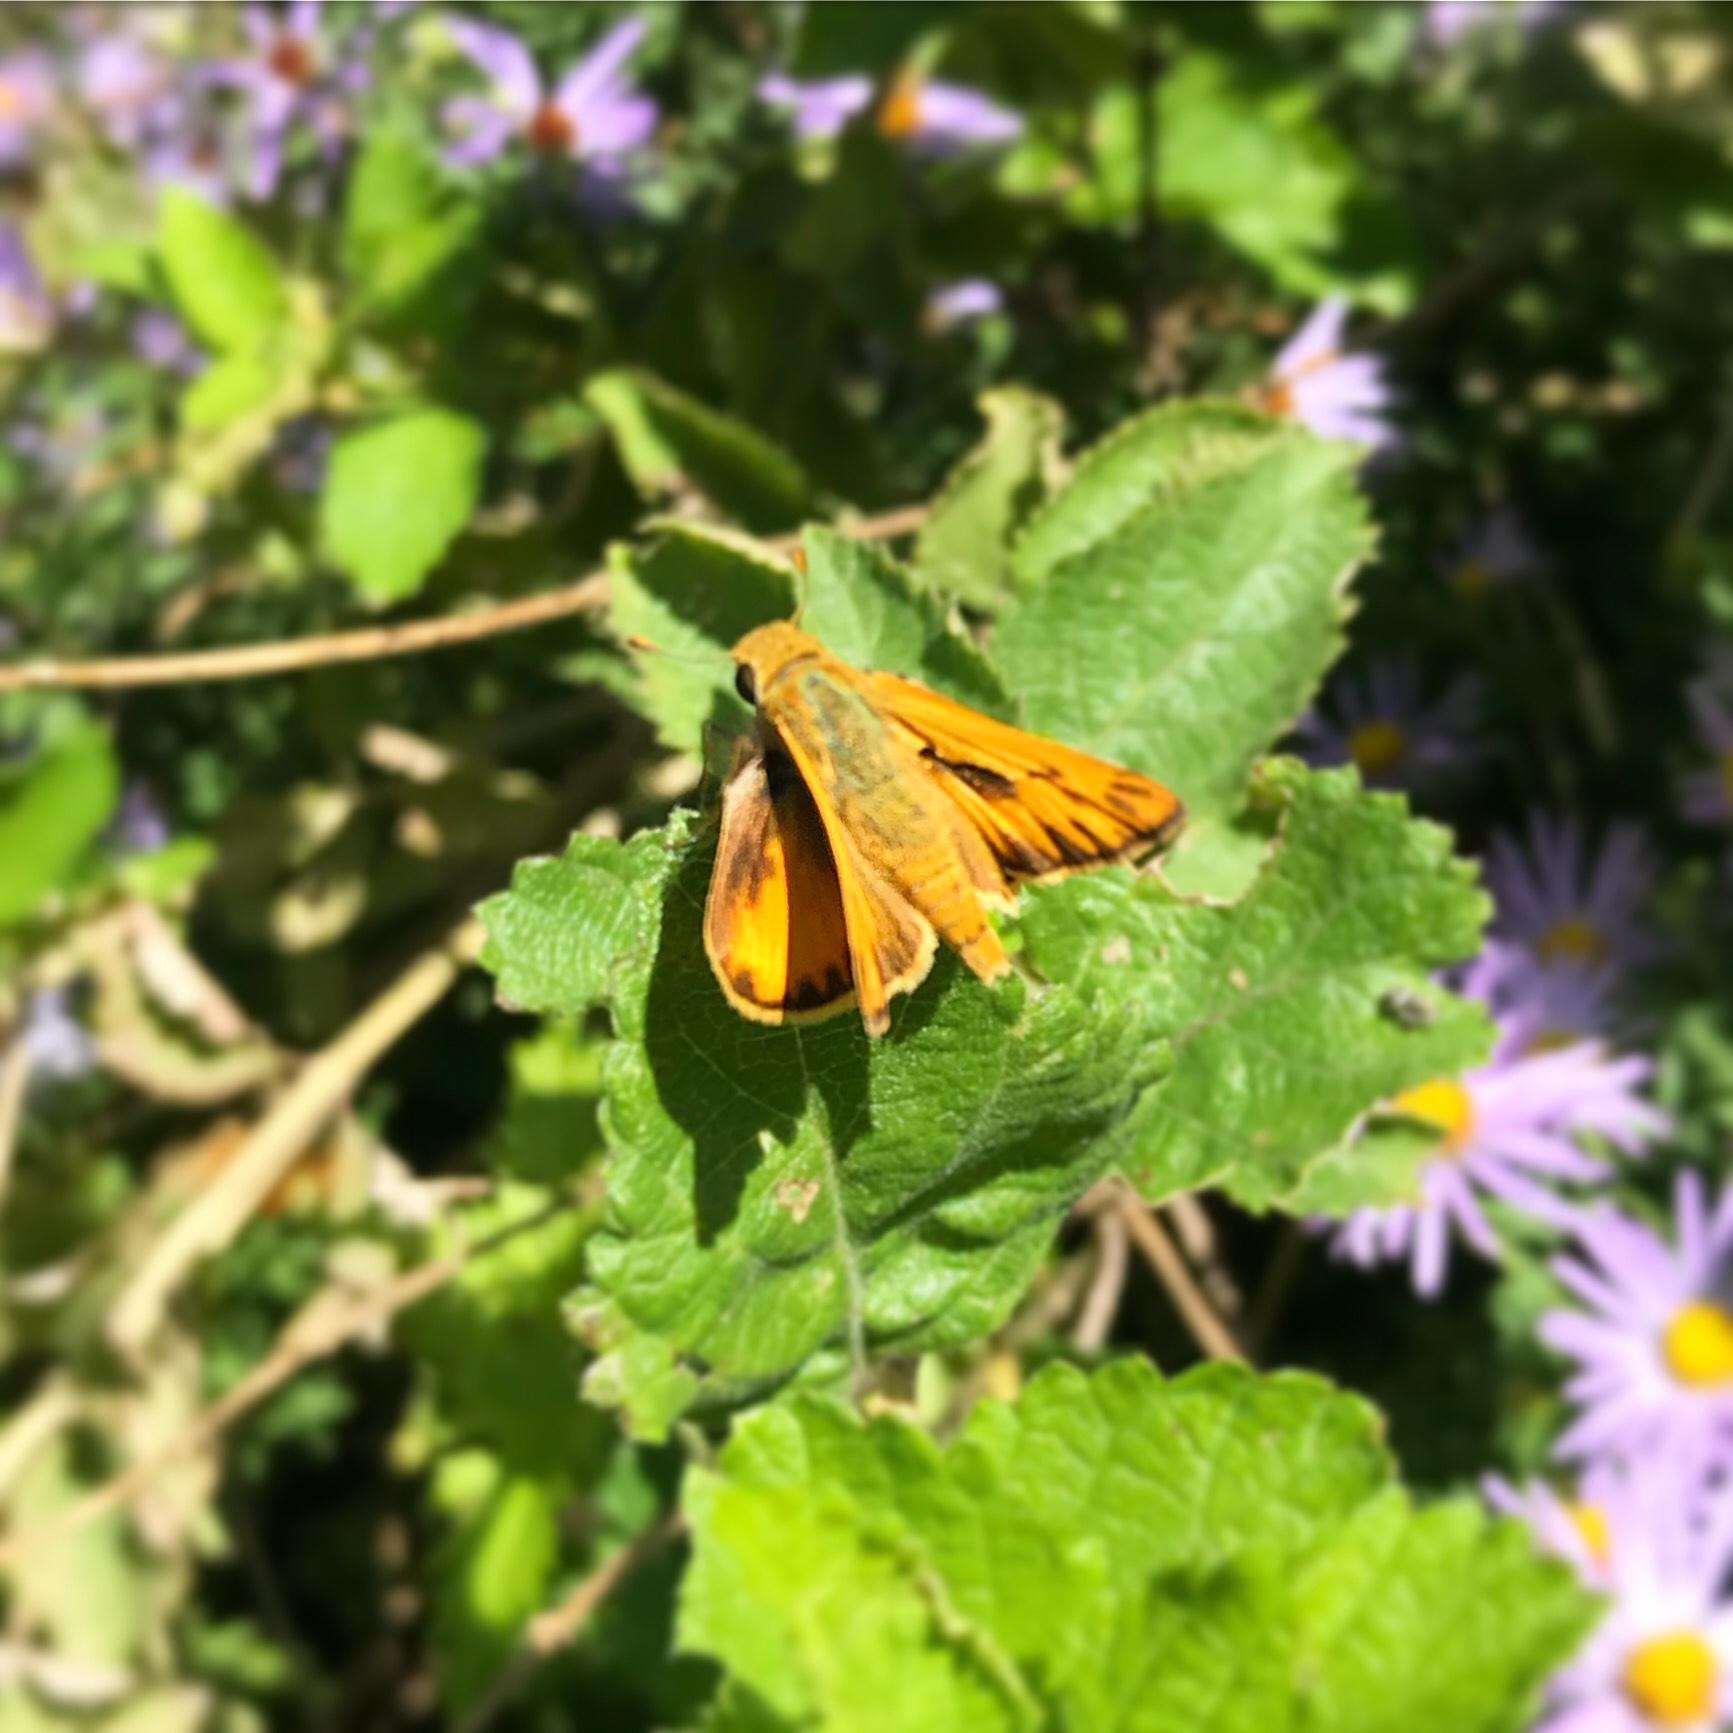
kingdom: Animalia
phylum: Arthropoda
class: Insecta
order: Lepidoptera
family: Hesperiidae
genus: Hylephila
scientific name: Hylephila phyleus
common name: Fiery skipper
